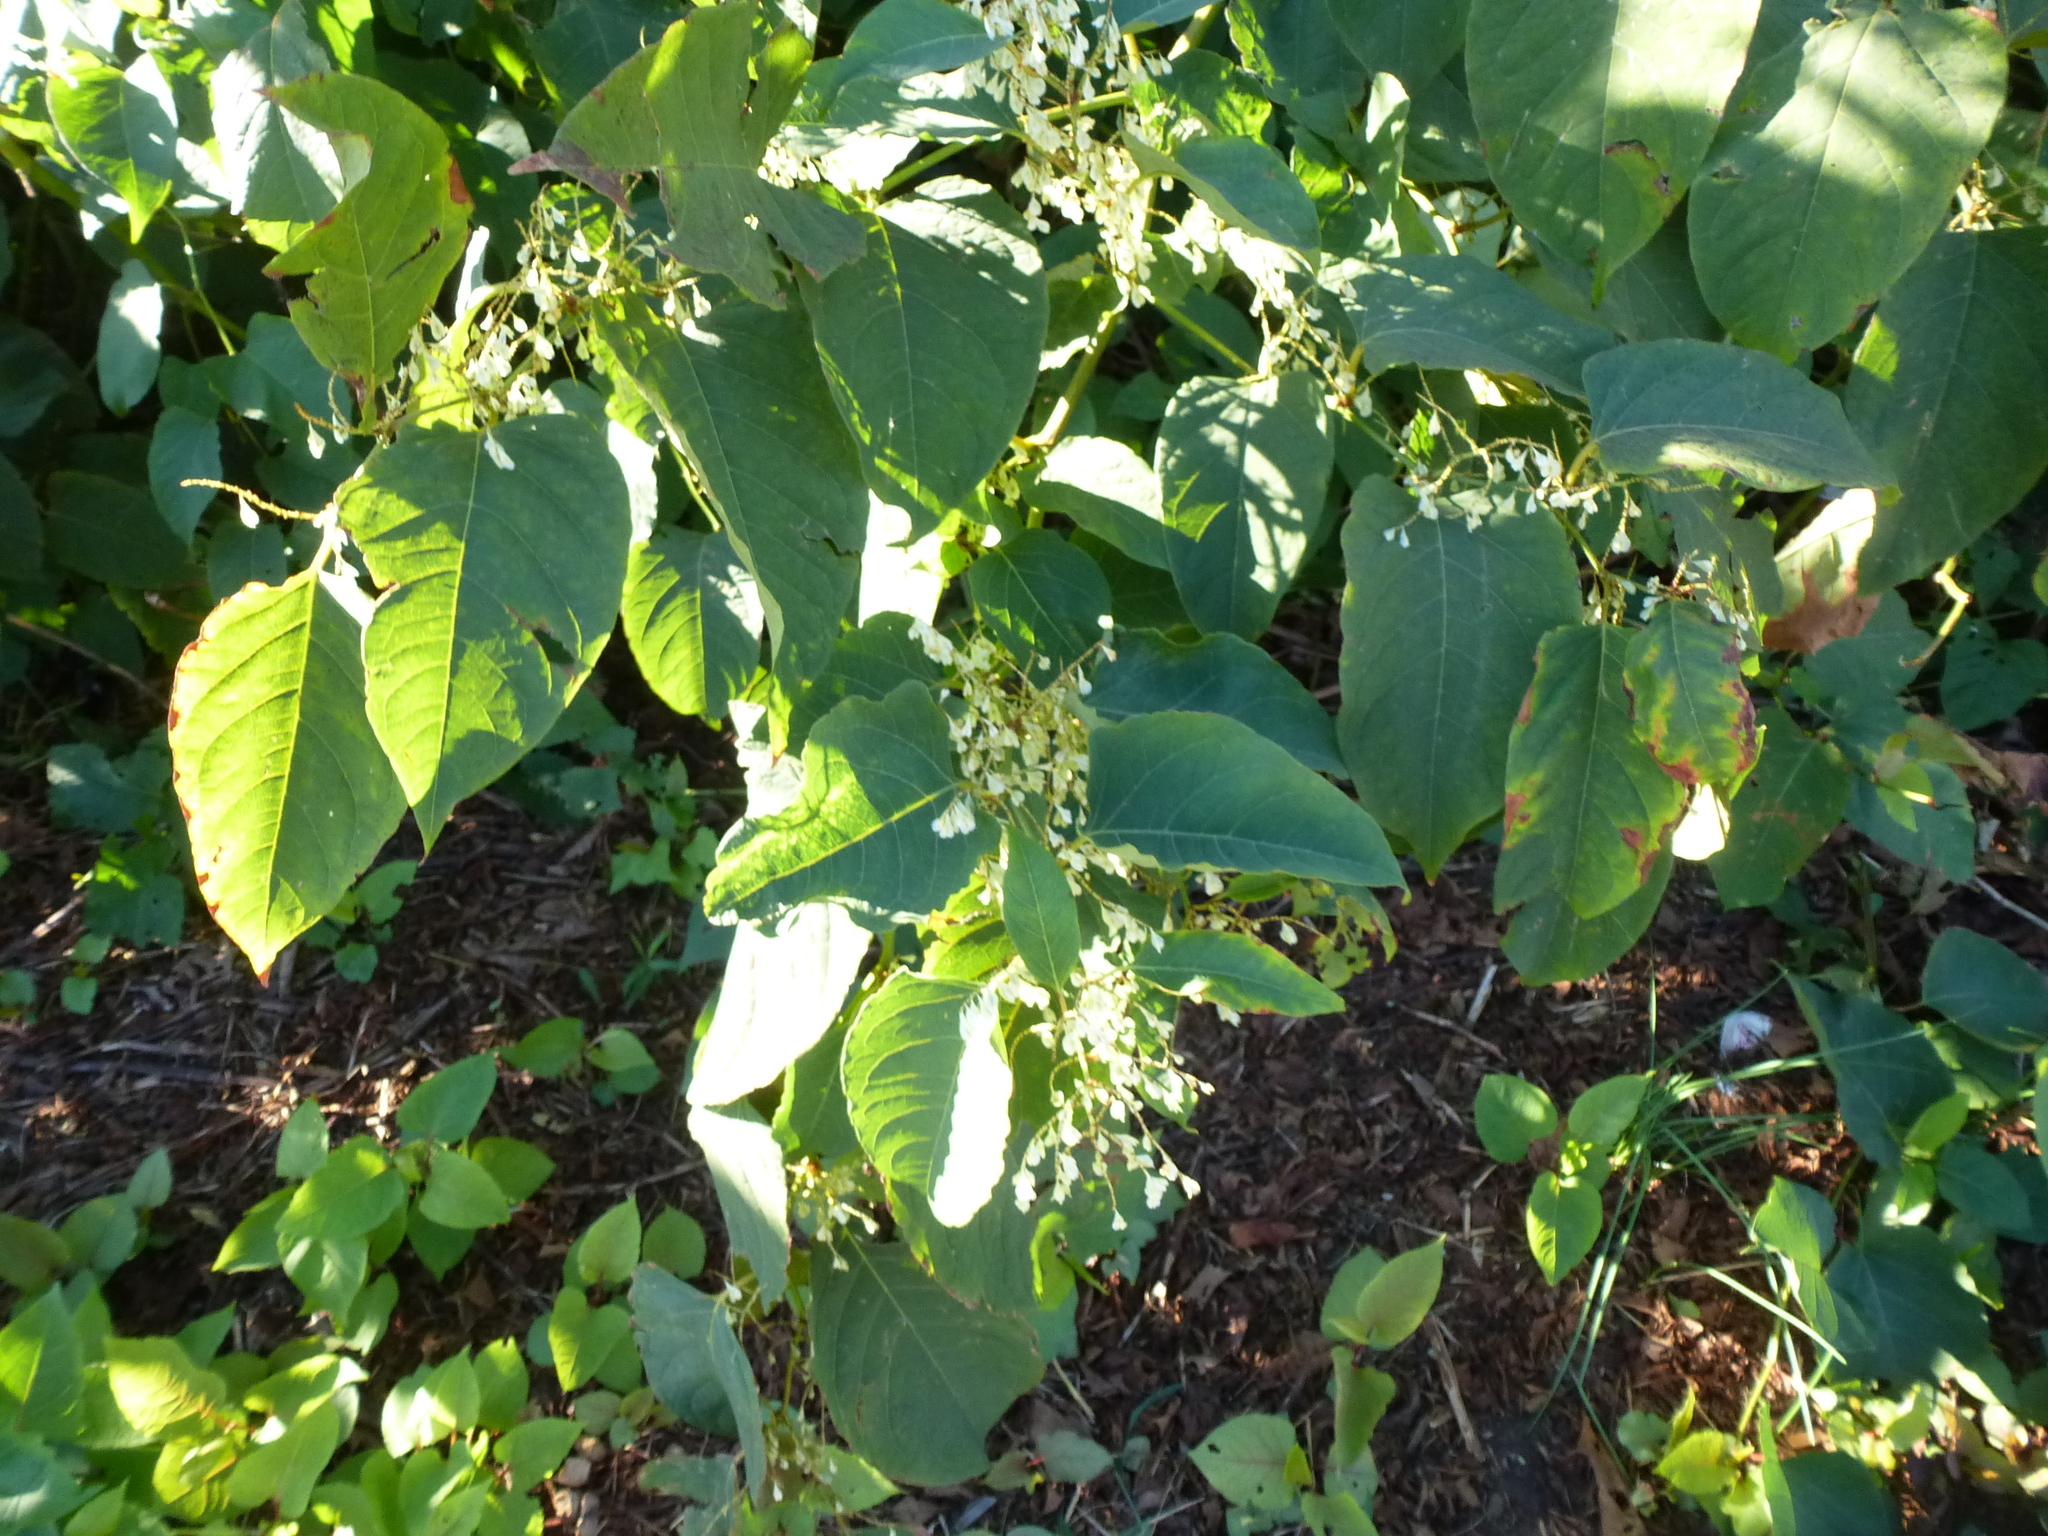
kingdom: Plantae
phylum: Tracheophyta
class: Magnoliopsida
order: Caryophyllales
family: Polygonaceae
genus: Reynoutria
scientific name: Reynoutria japonica
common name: Japanese knotweed
